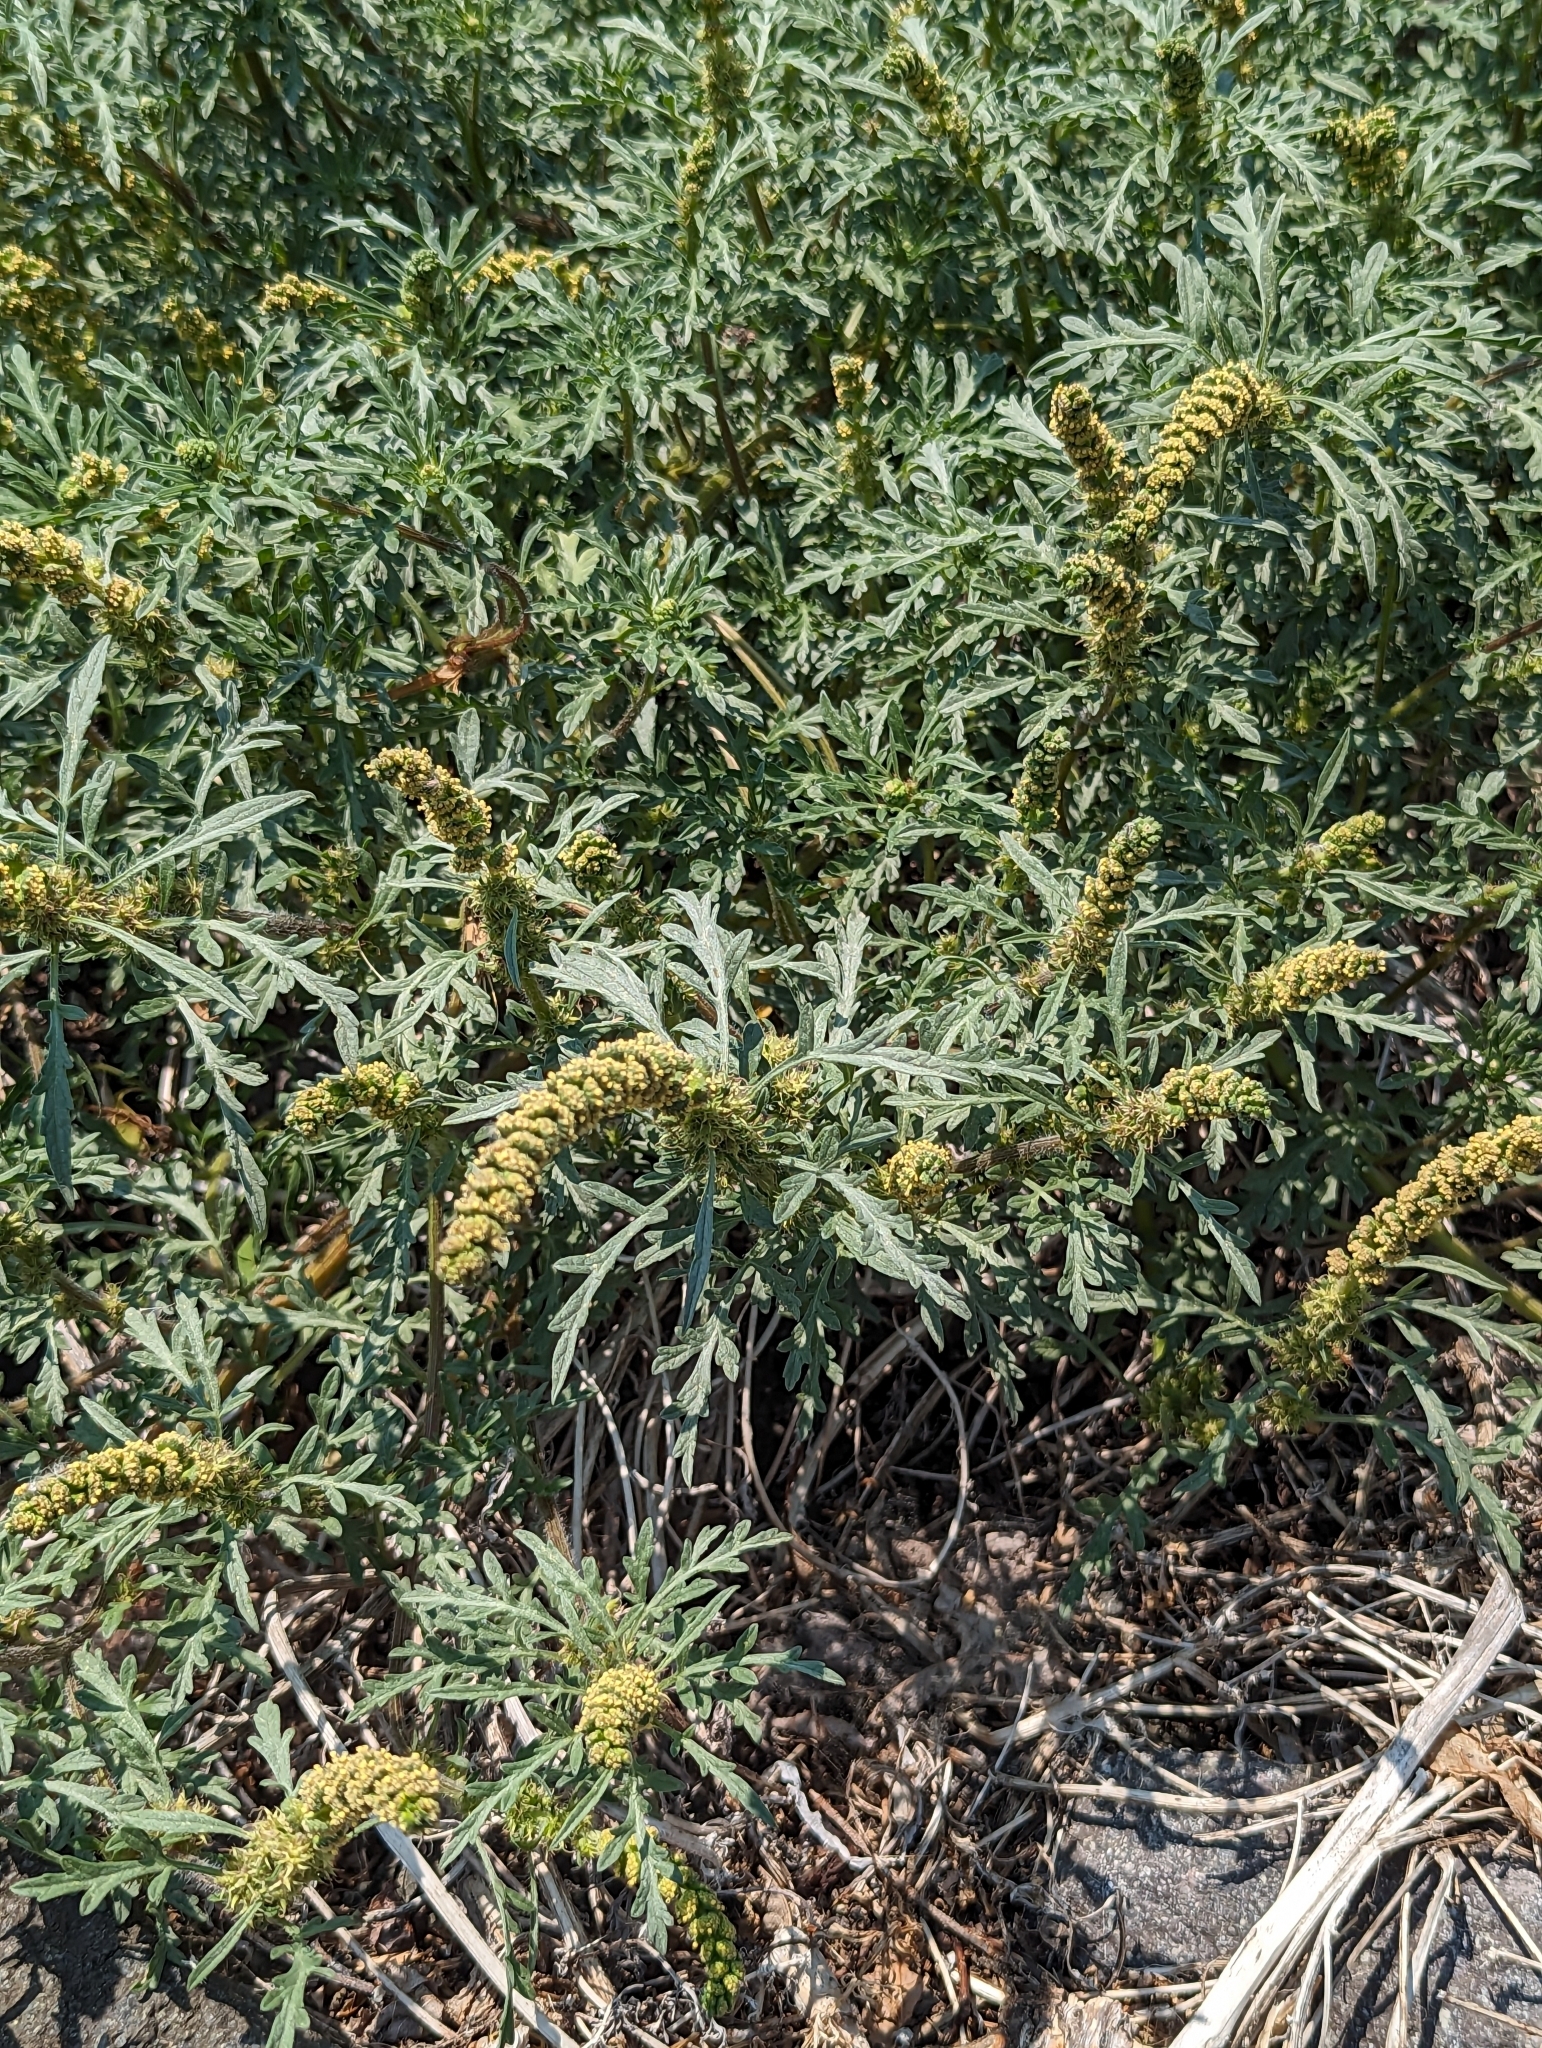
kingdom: Plantae
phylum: Tracheophyta
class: Magnoliopsida
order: Asterales
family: Asteraceae
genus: Ambrosia
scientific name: Ambrosia chamissonis
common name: Beachbur
